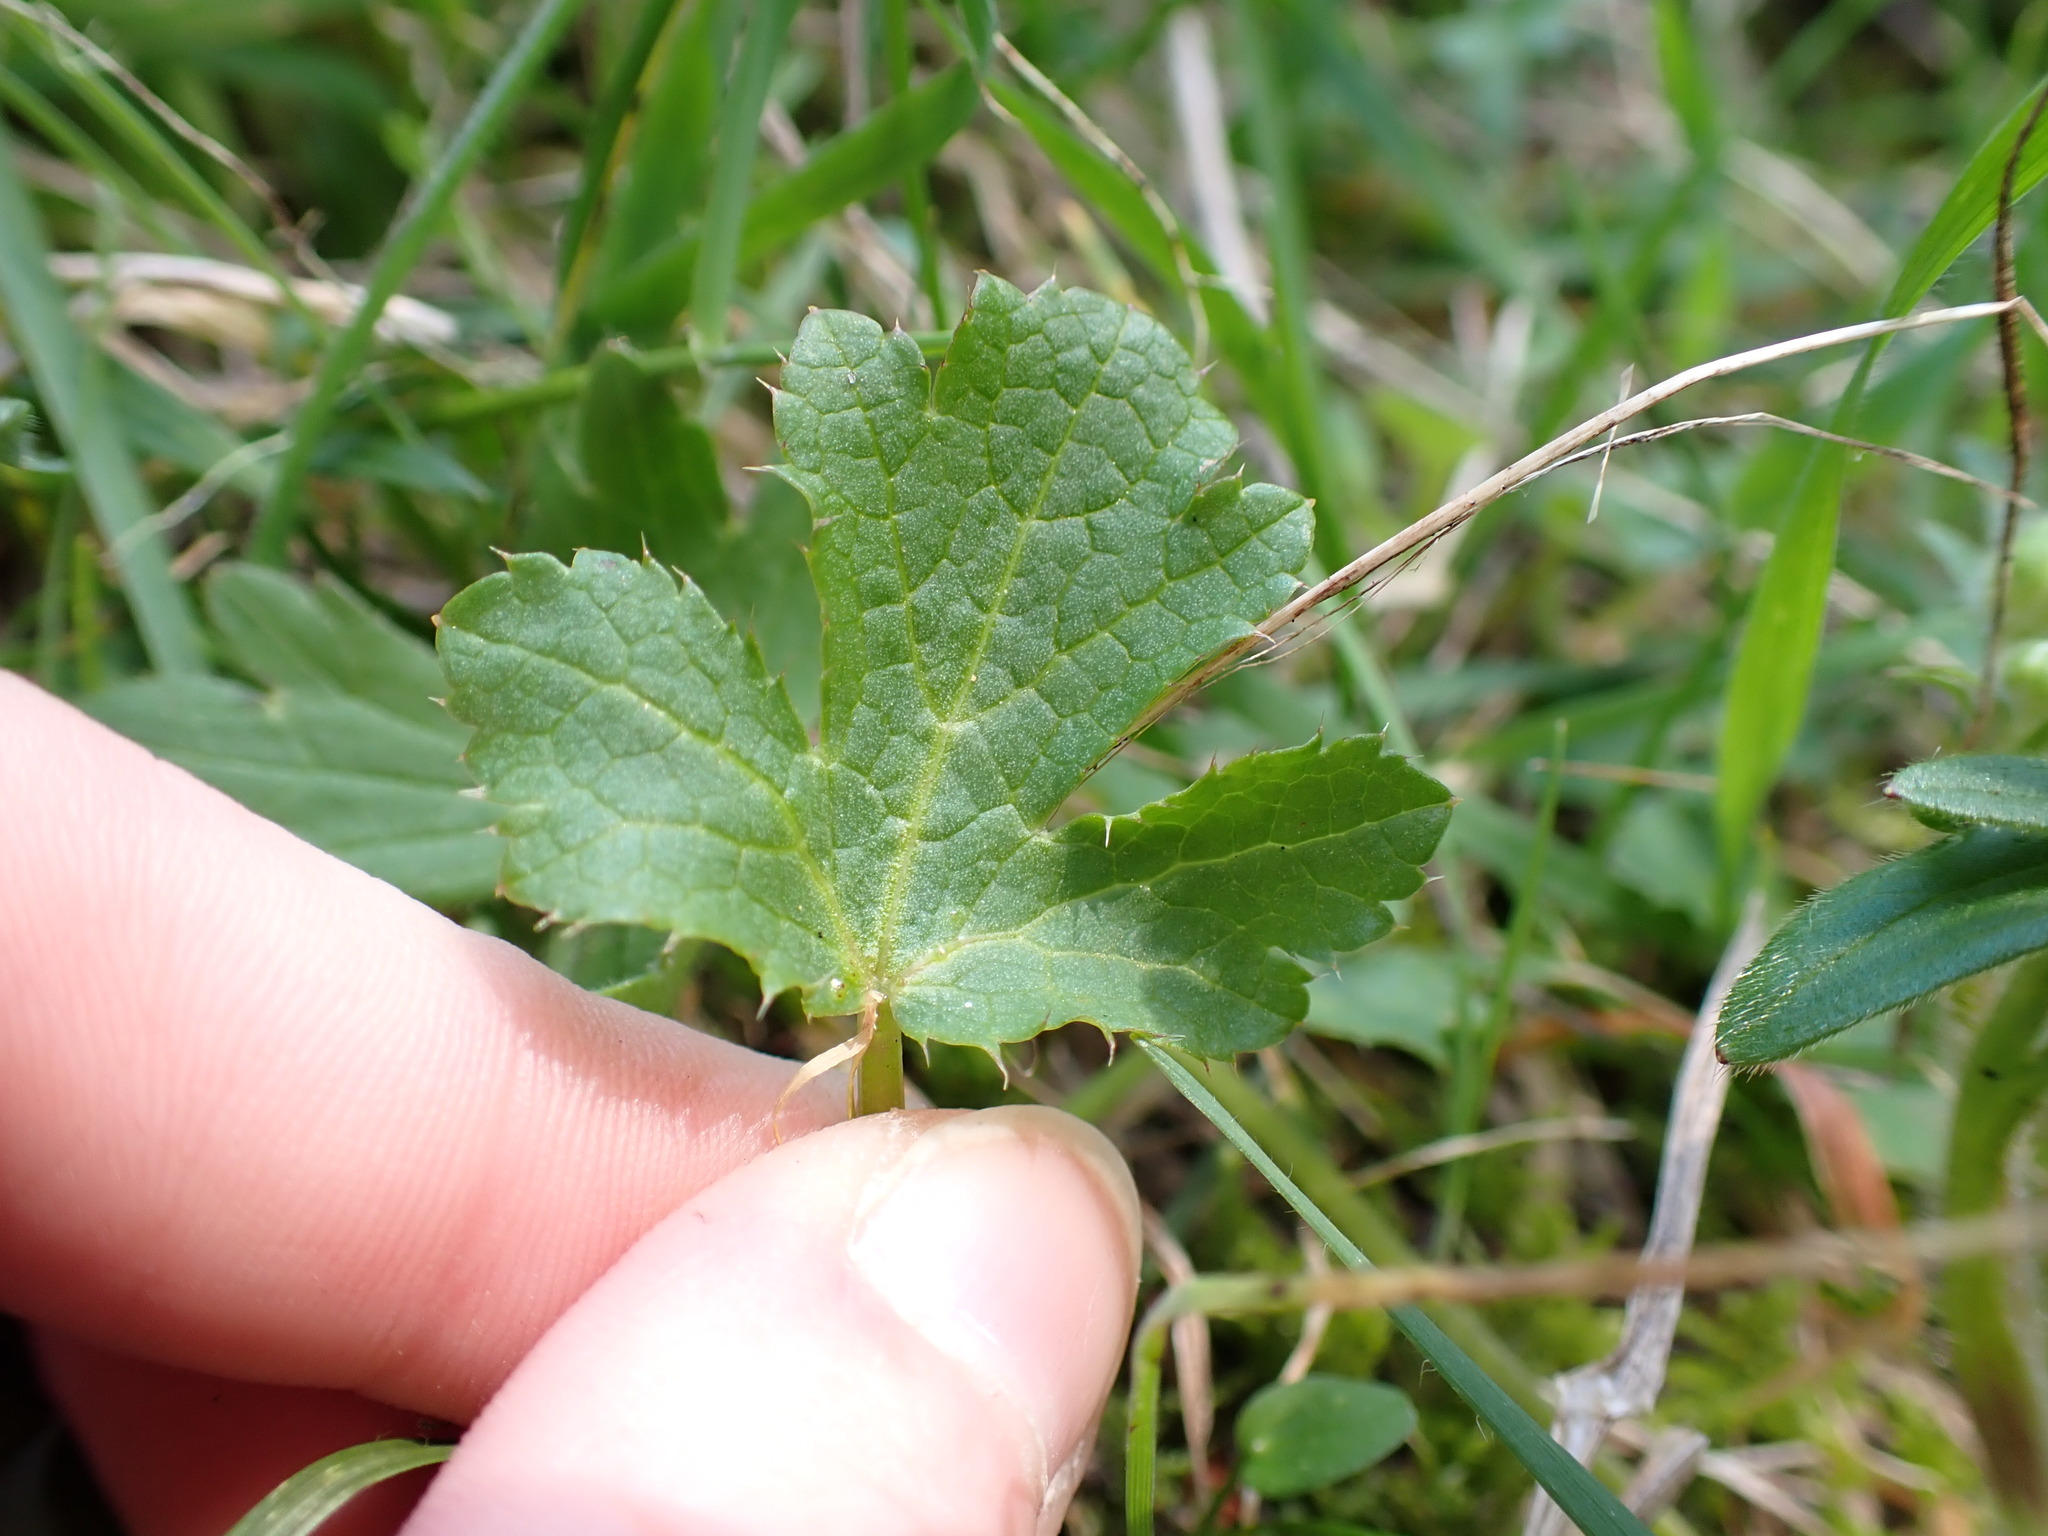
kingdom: Plantae
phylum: Tracheophyta
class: Magnoliopsida
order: Apiales
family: Apiaceae
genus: Sanicula
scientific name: Sanicula crassicaulis
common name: Western snakeroot
